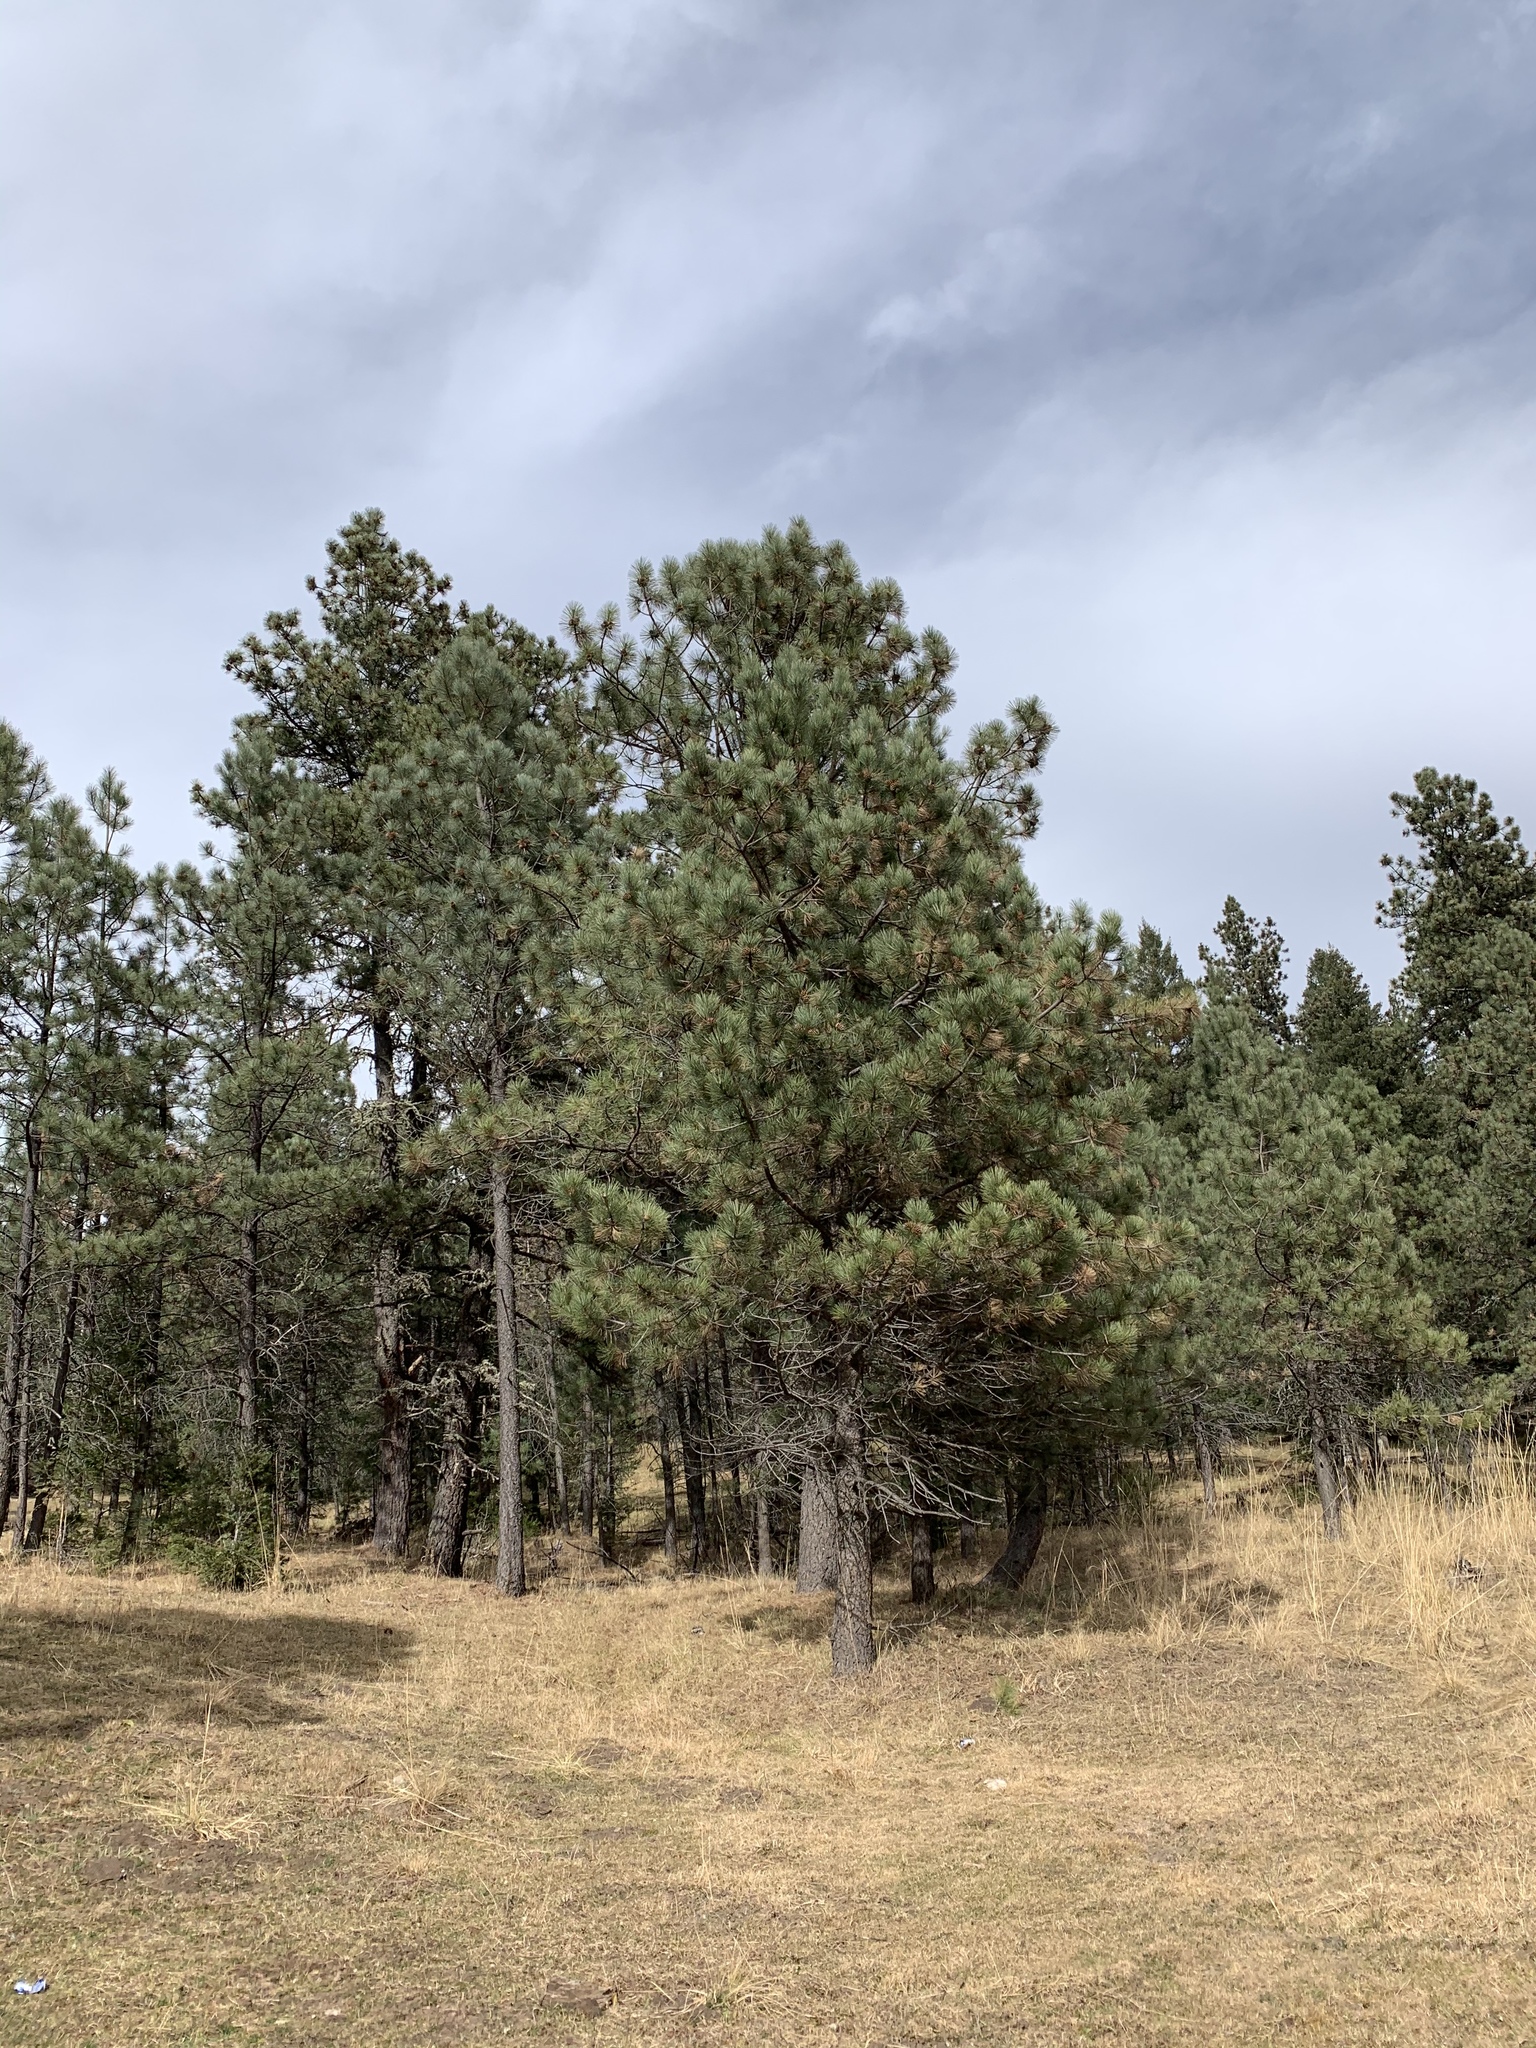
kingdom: Plantae
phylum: Tracheophyta
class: Pinopsida
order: Pinales
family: Pinaceae
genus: Pinus
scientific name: Pinus ponderosa
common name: Western yellow-pine
